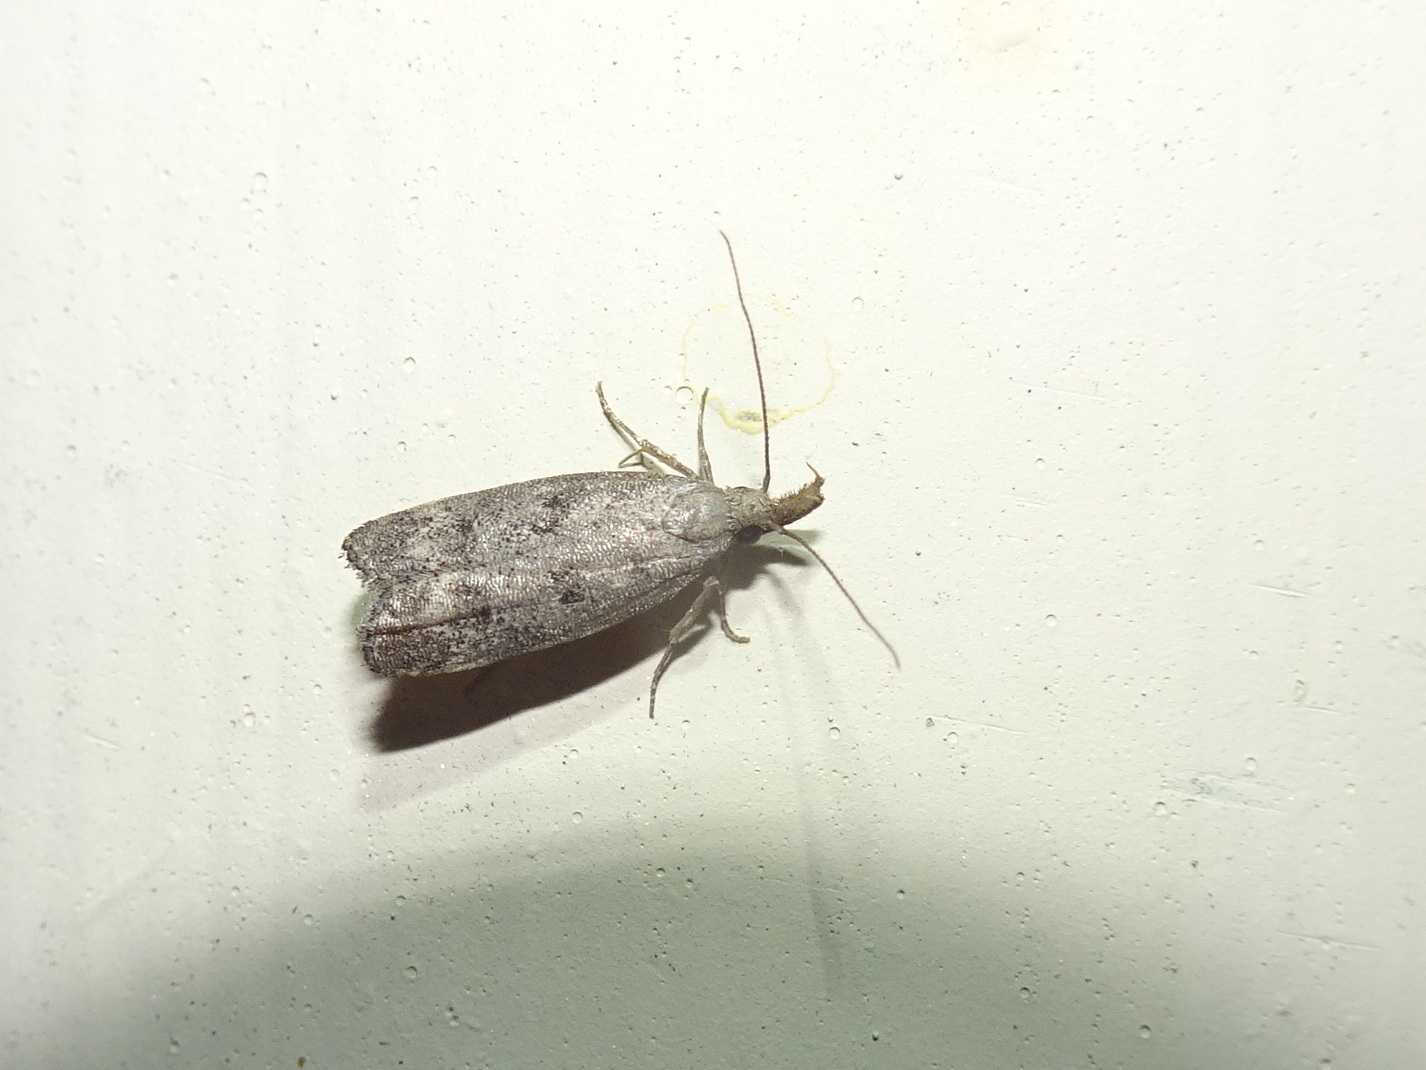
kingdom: Animalia
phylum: Arthropoda
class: Insecta
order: Lepidoptera
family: Gelechiidae
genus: Dichomeris
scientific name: Dichomeris inversella
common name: Inverse dichomeris moth
